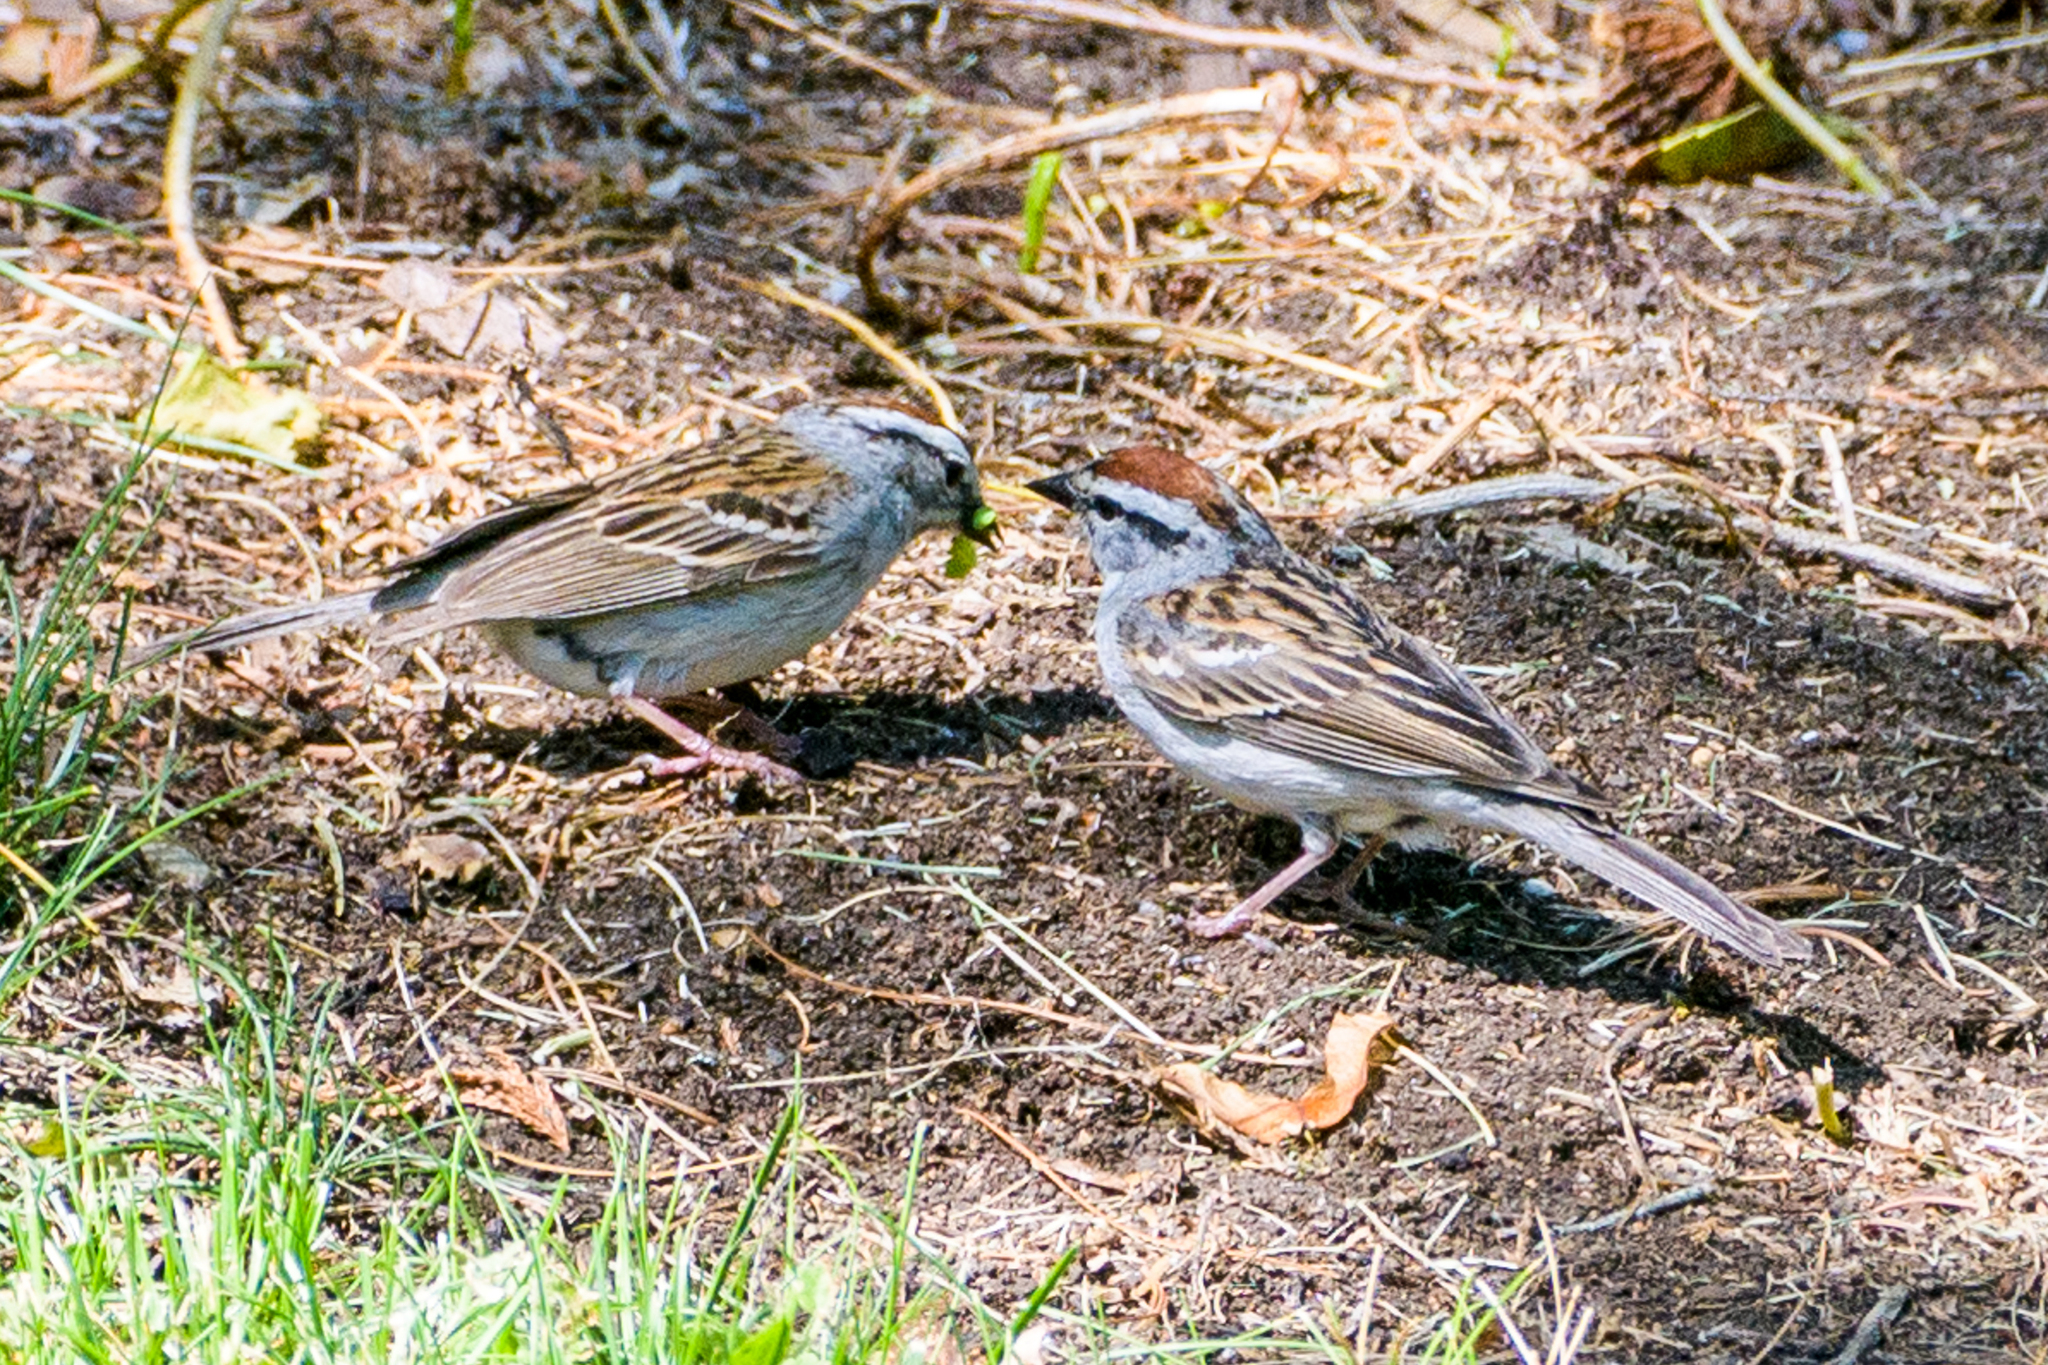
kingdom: Animalia
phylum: Chordata
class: Aves
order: Passeriformes
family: Passerellidae
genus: Spizella
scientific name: Spizella passerina
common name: Chipping sparrow
